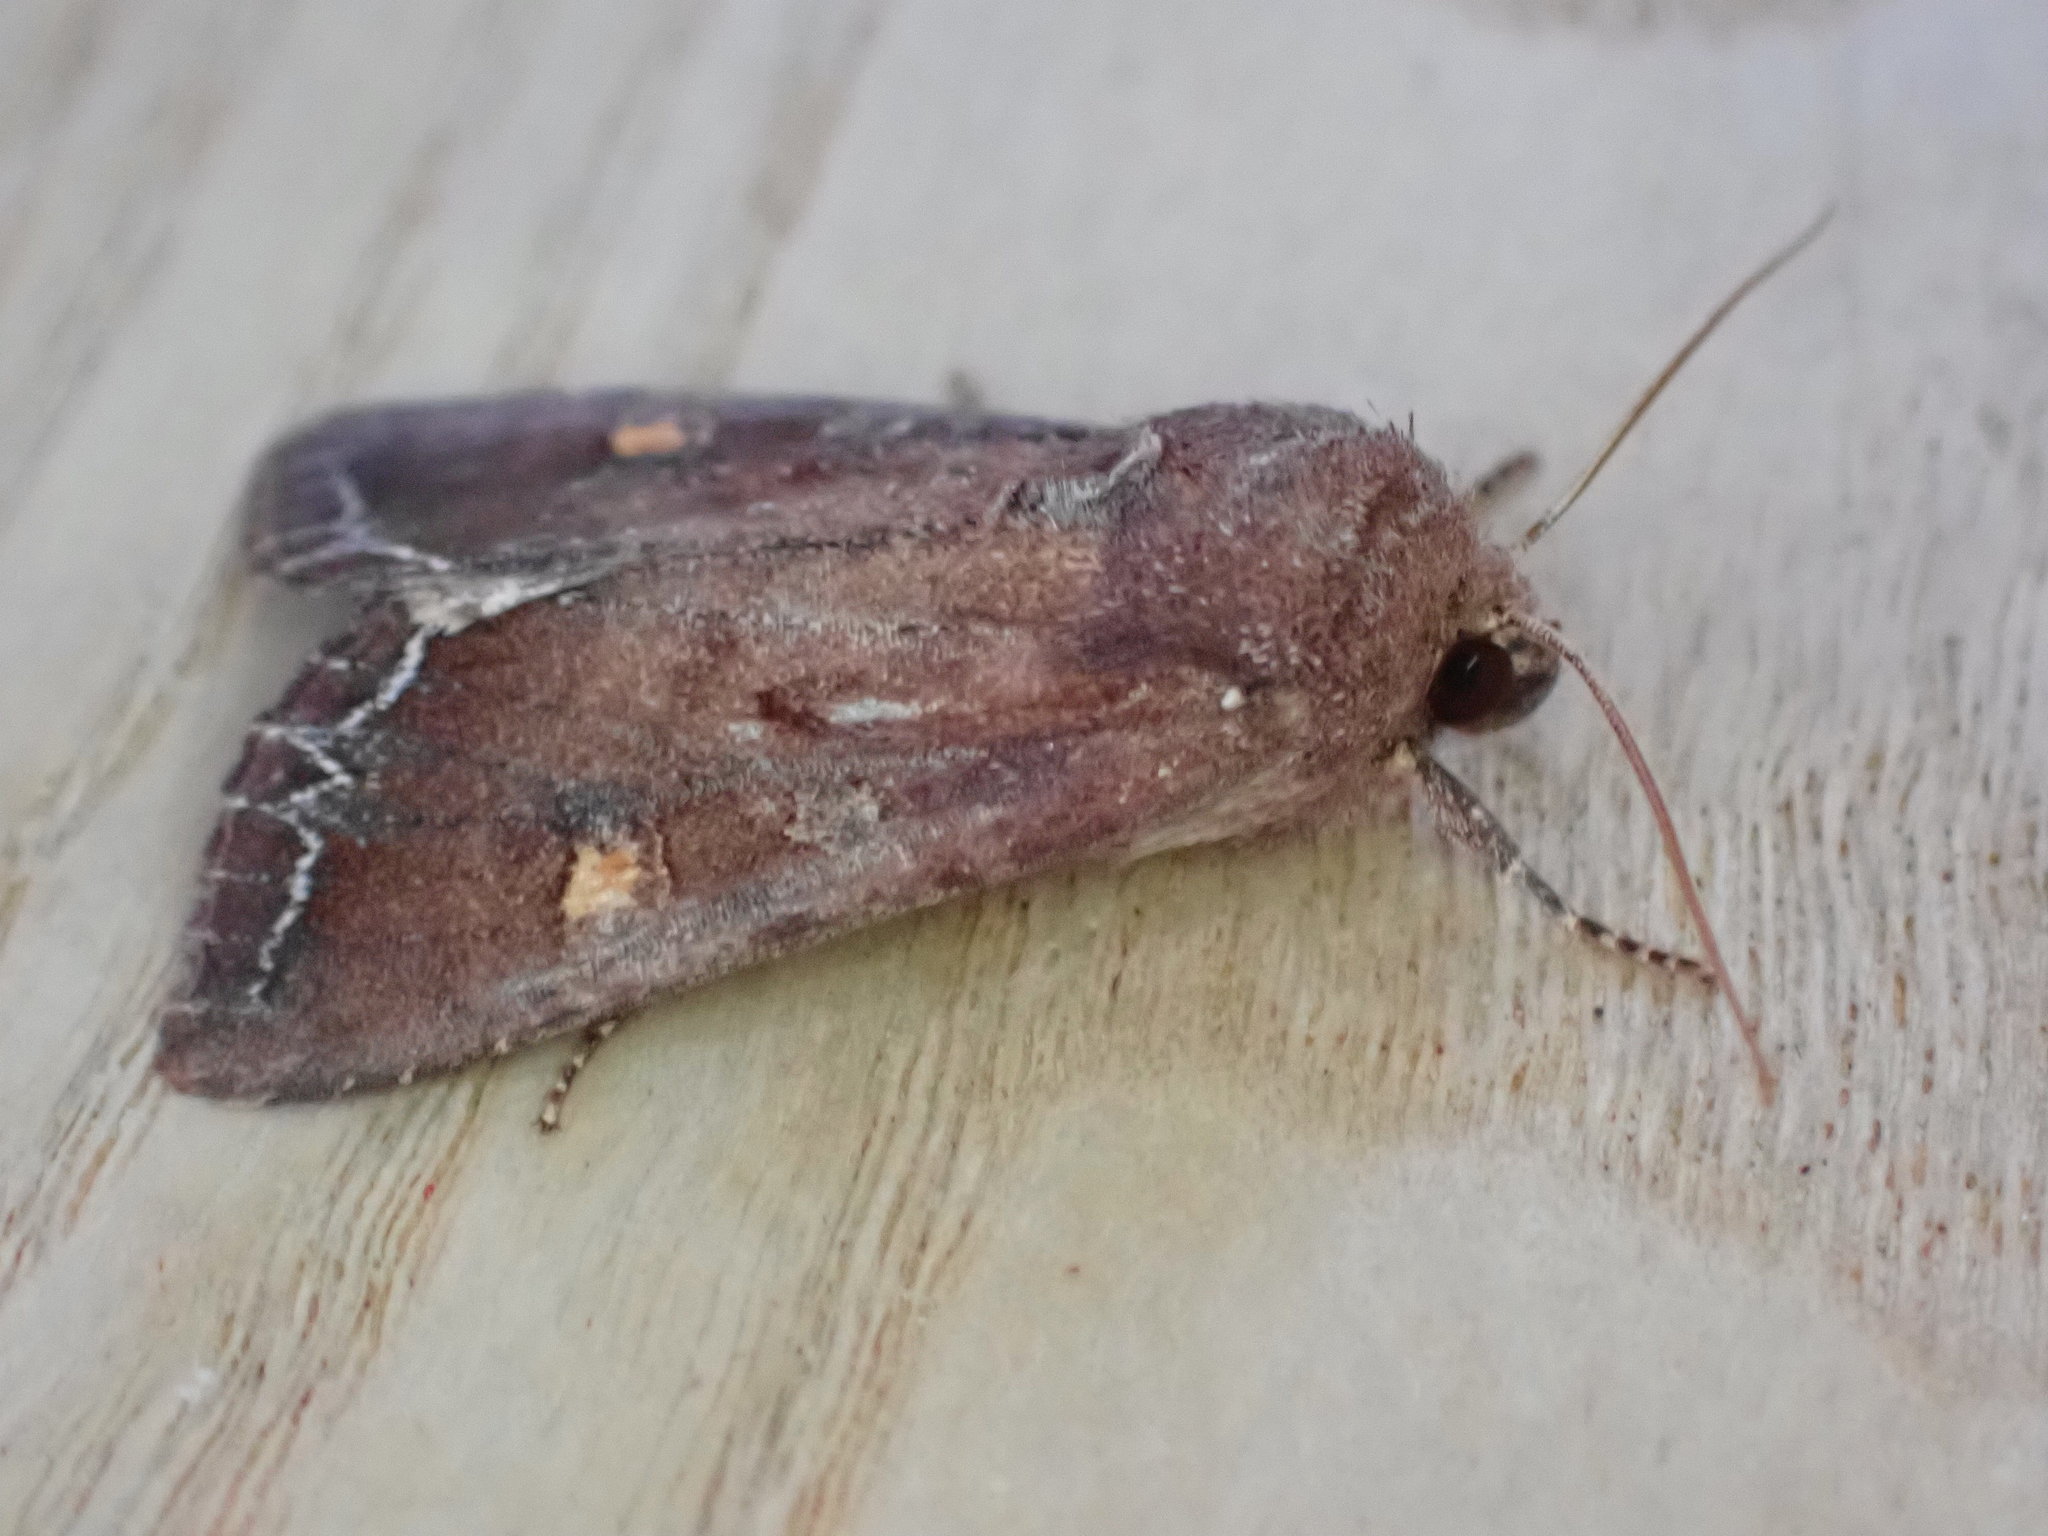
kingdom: Animalia
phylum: Arthropoda
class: Insecta
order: Lepidoptera
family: Noctuidae
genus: Lacanobia
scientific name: Lacanobia oleracea
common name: Bright-line brown-eye
